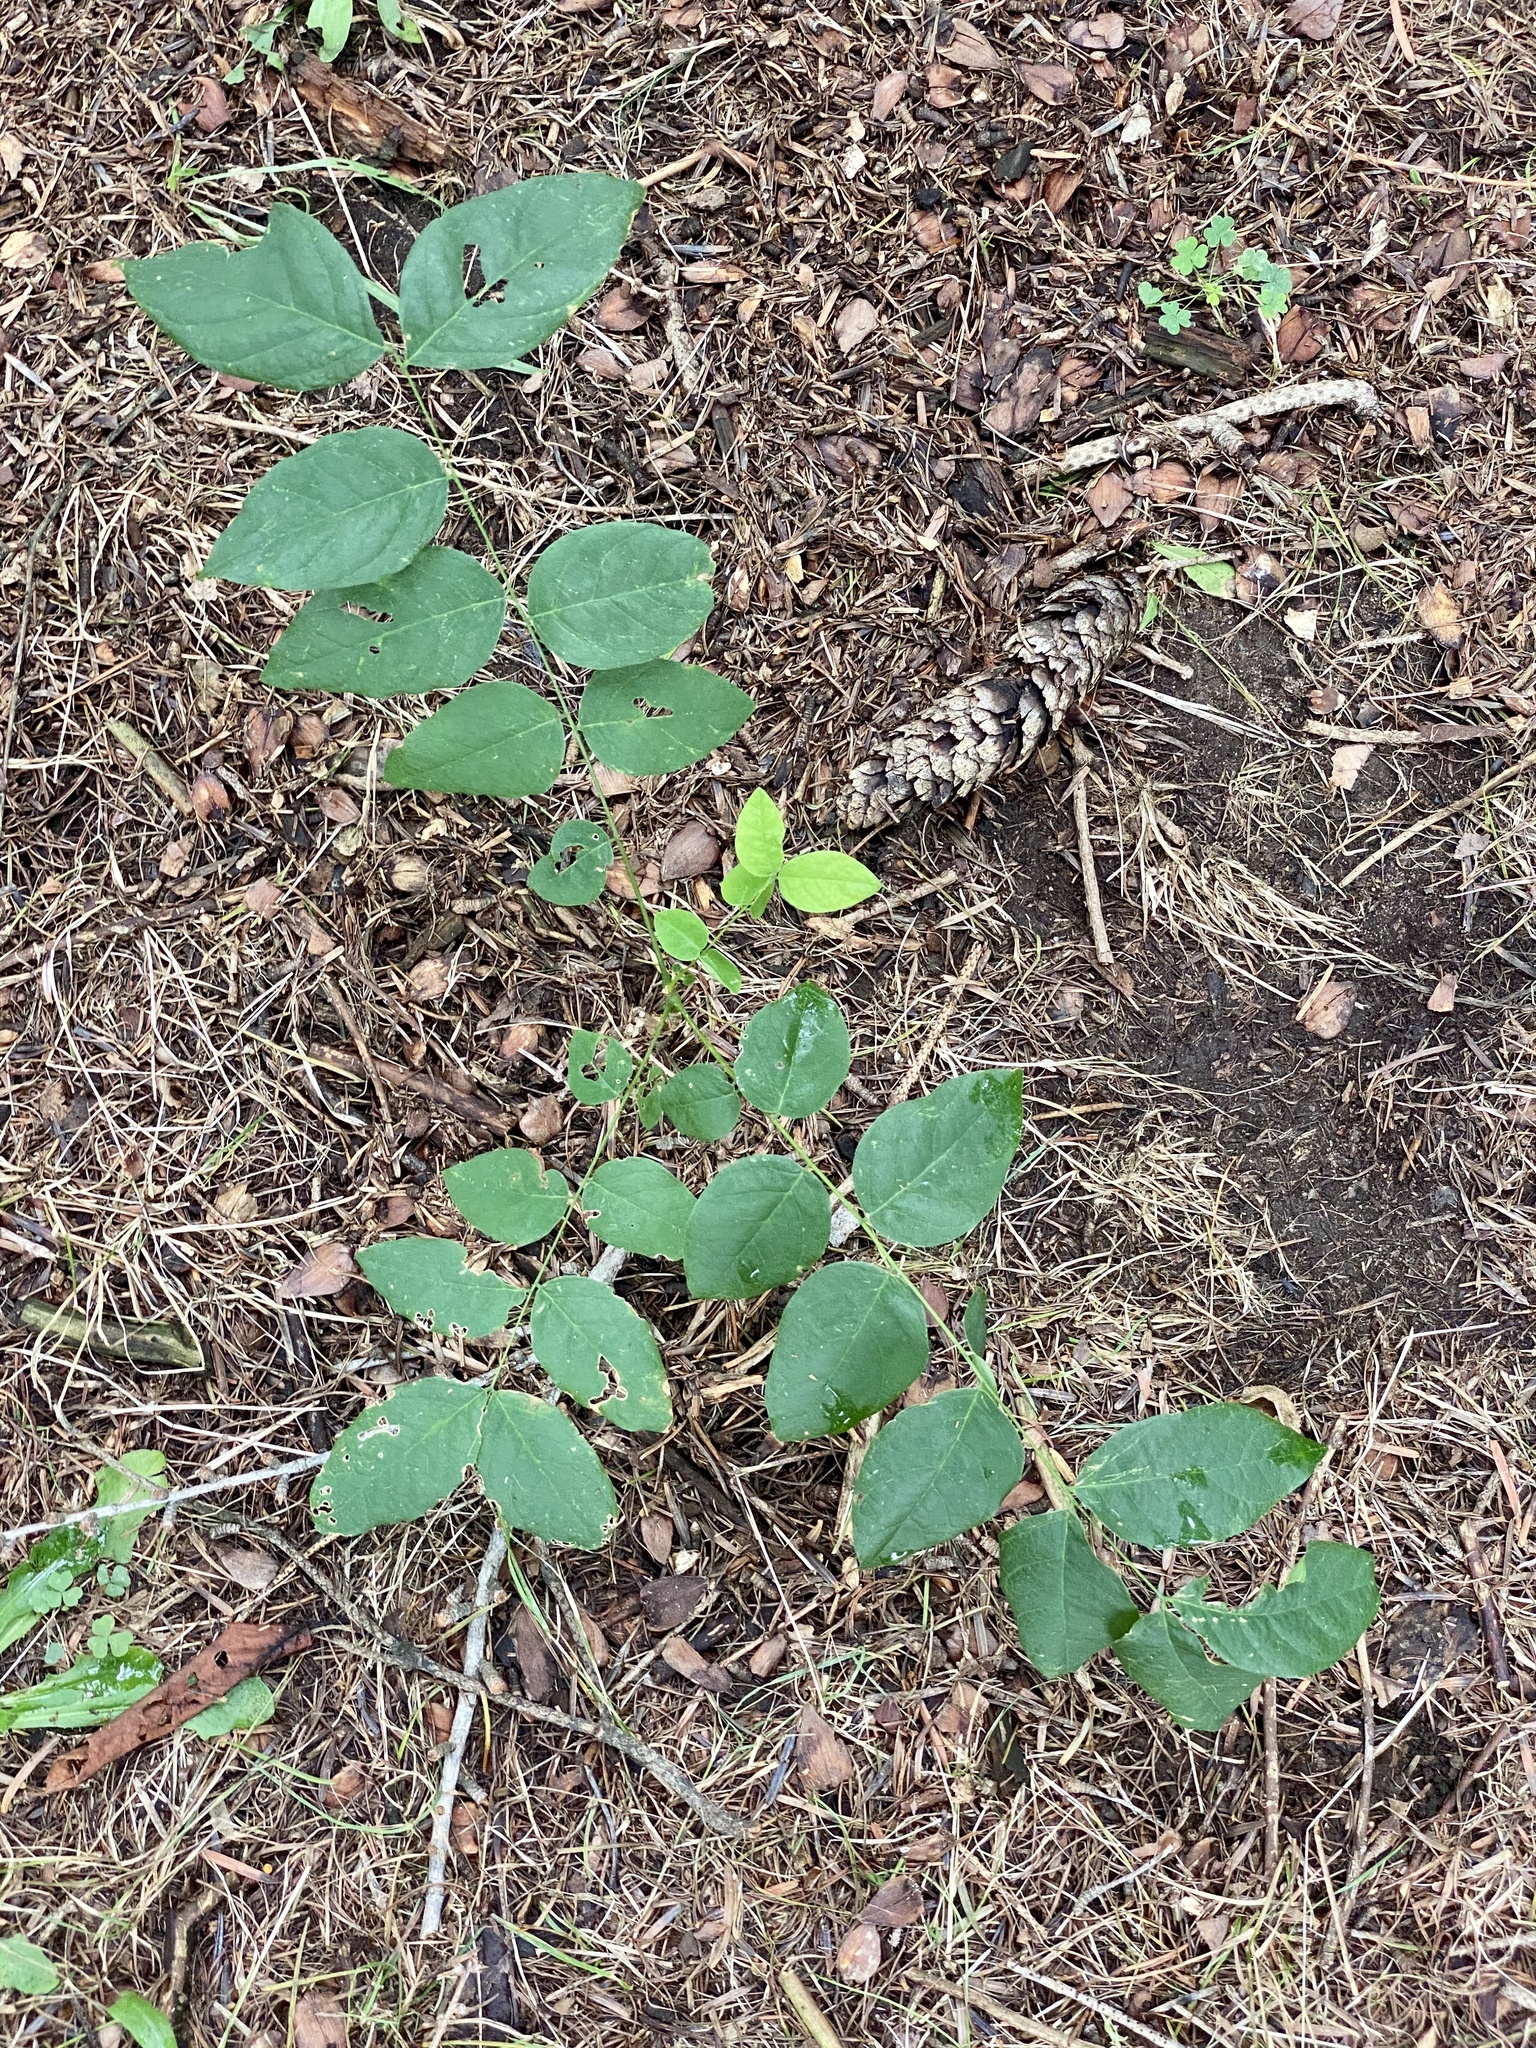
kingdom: Plantae
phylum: Tracheophyta
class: Magnoliopsida
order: Fabales
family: Fabaceae
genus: Gymnocladus
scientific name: Gymnocladus dioicus
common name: Kentucky coffee-tree
